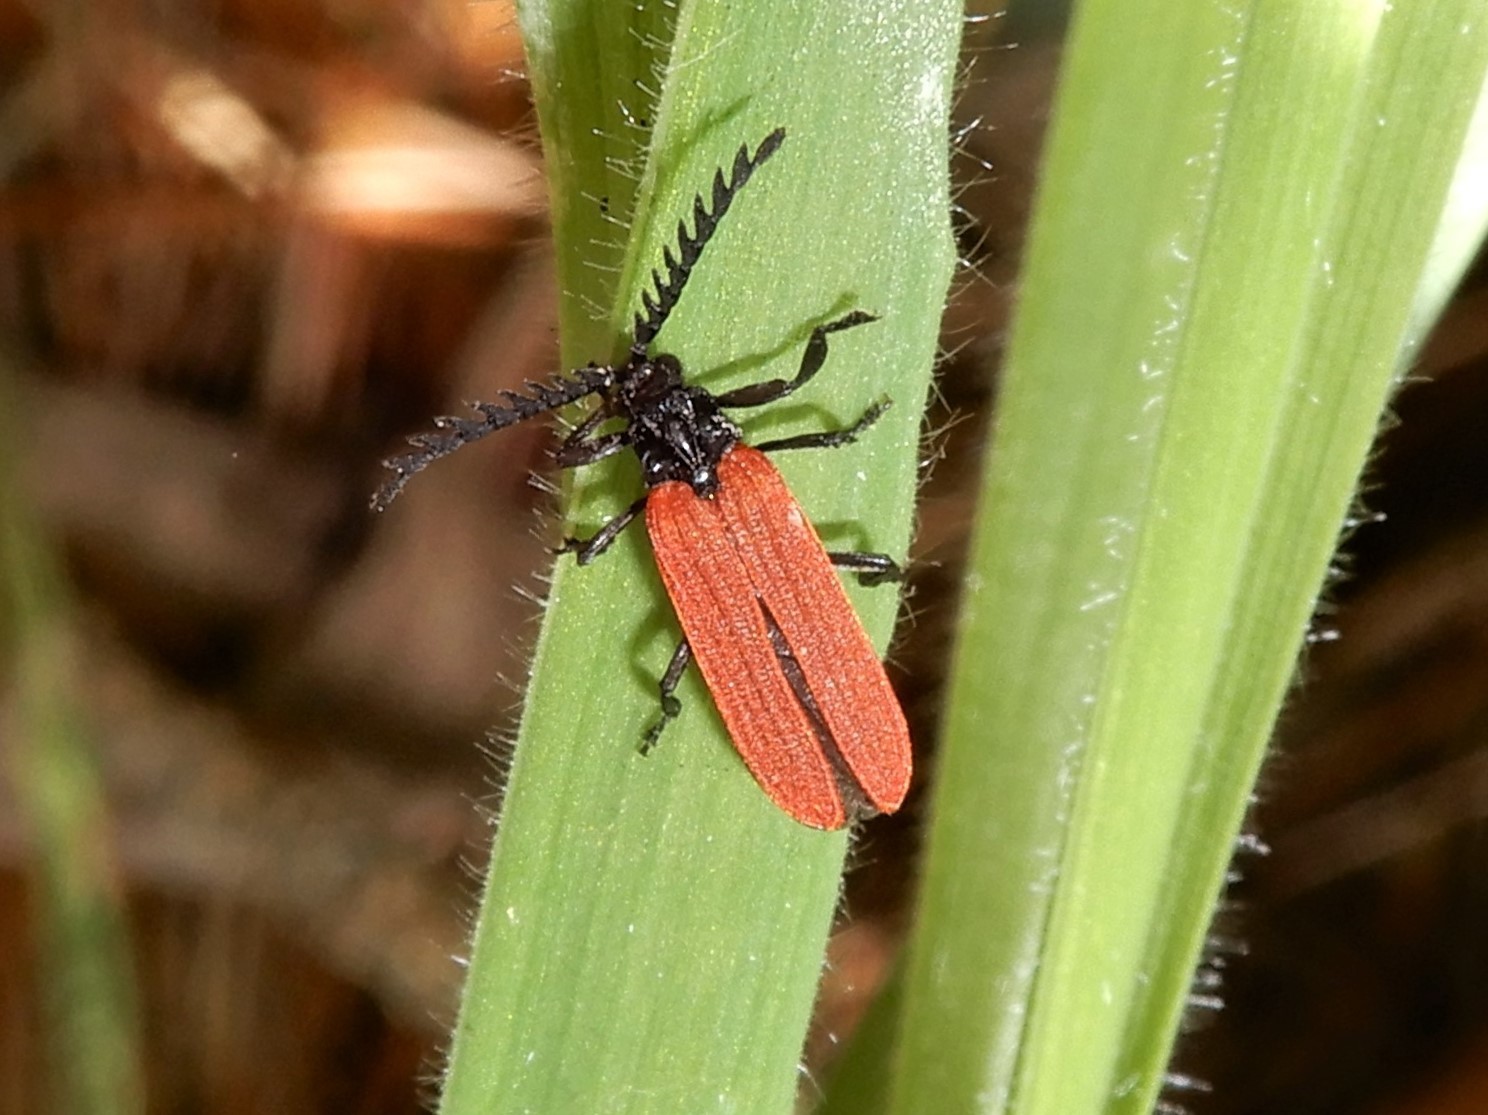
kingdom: Animalia
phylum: Arthropoda
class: Insecta
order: Coleoptera
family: Lycidae
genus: Porrostoma
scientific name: Porrostoma rufipenne
